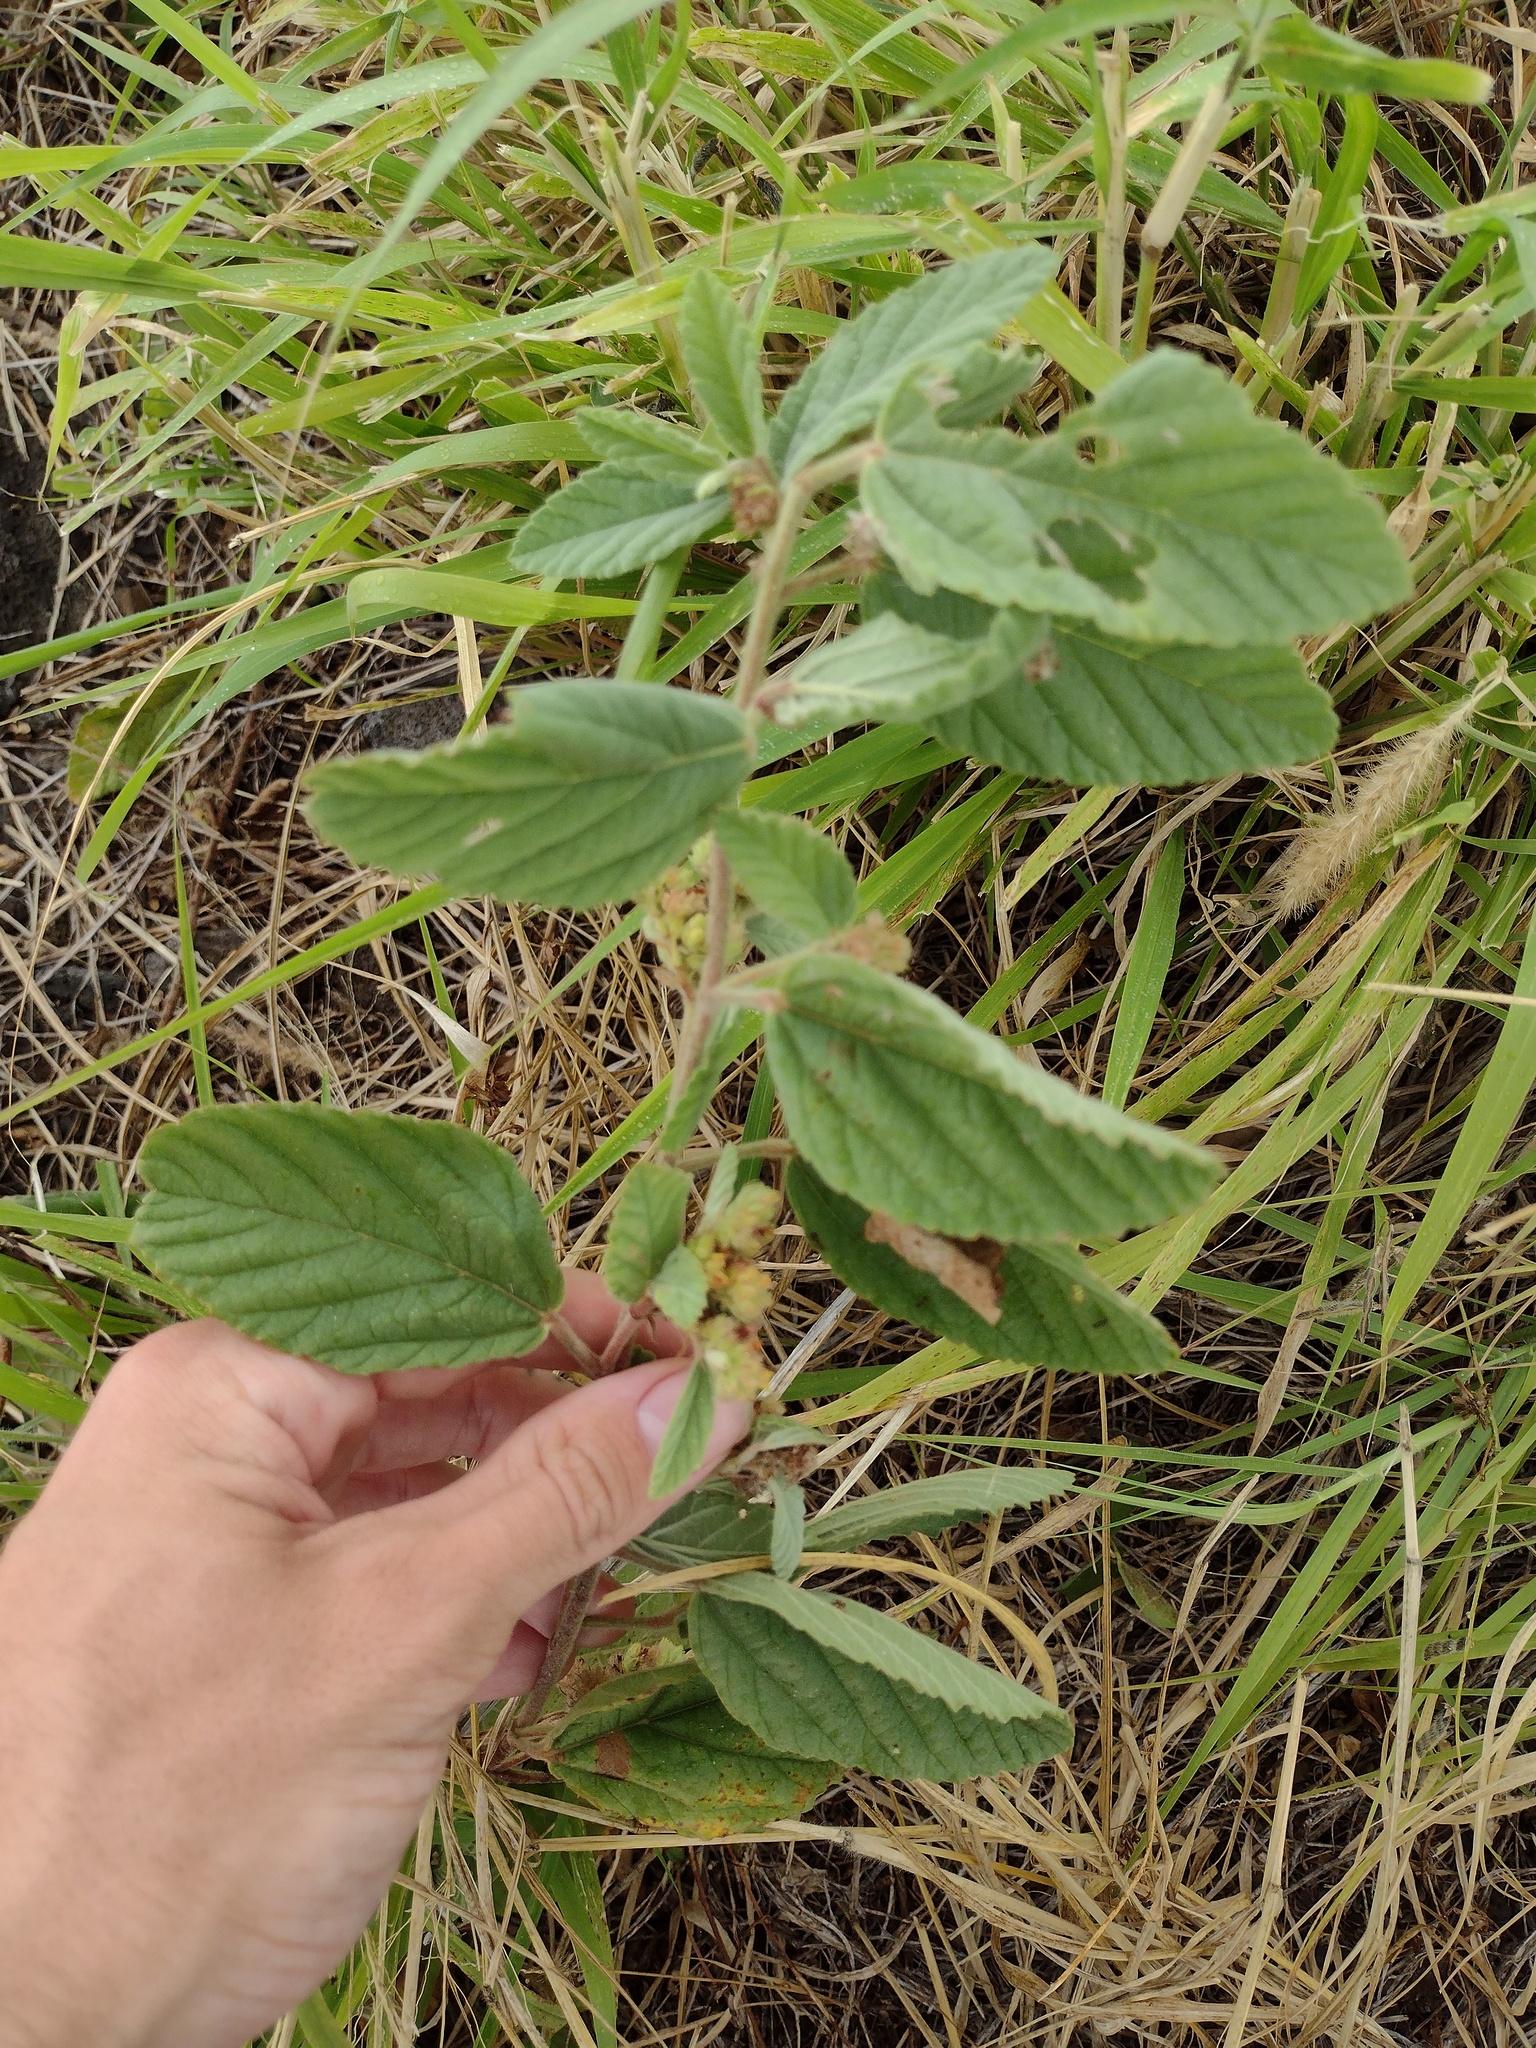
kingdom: Plantae
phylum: Tracheophyta
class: Magnoliopsida
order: Malvales
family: Malvaceae
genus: Waltheria
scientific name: Waltheria indica
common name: Leather-coat
